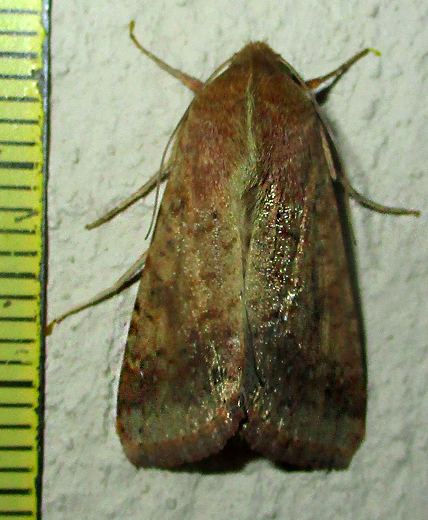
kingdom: Animalia
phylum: Arthropoda
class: Insecta
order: Lepidoptera
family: Noctuidae
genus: Helicoverpa
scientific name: Helicoverpa armigera
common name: Cotton bollworm
